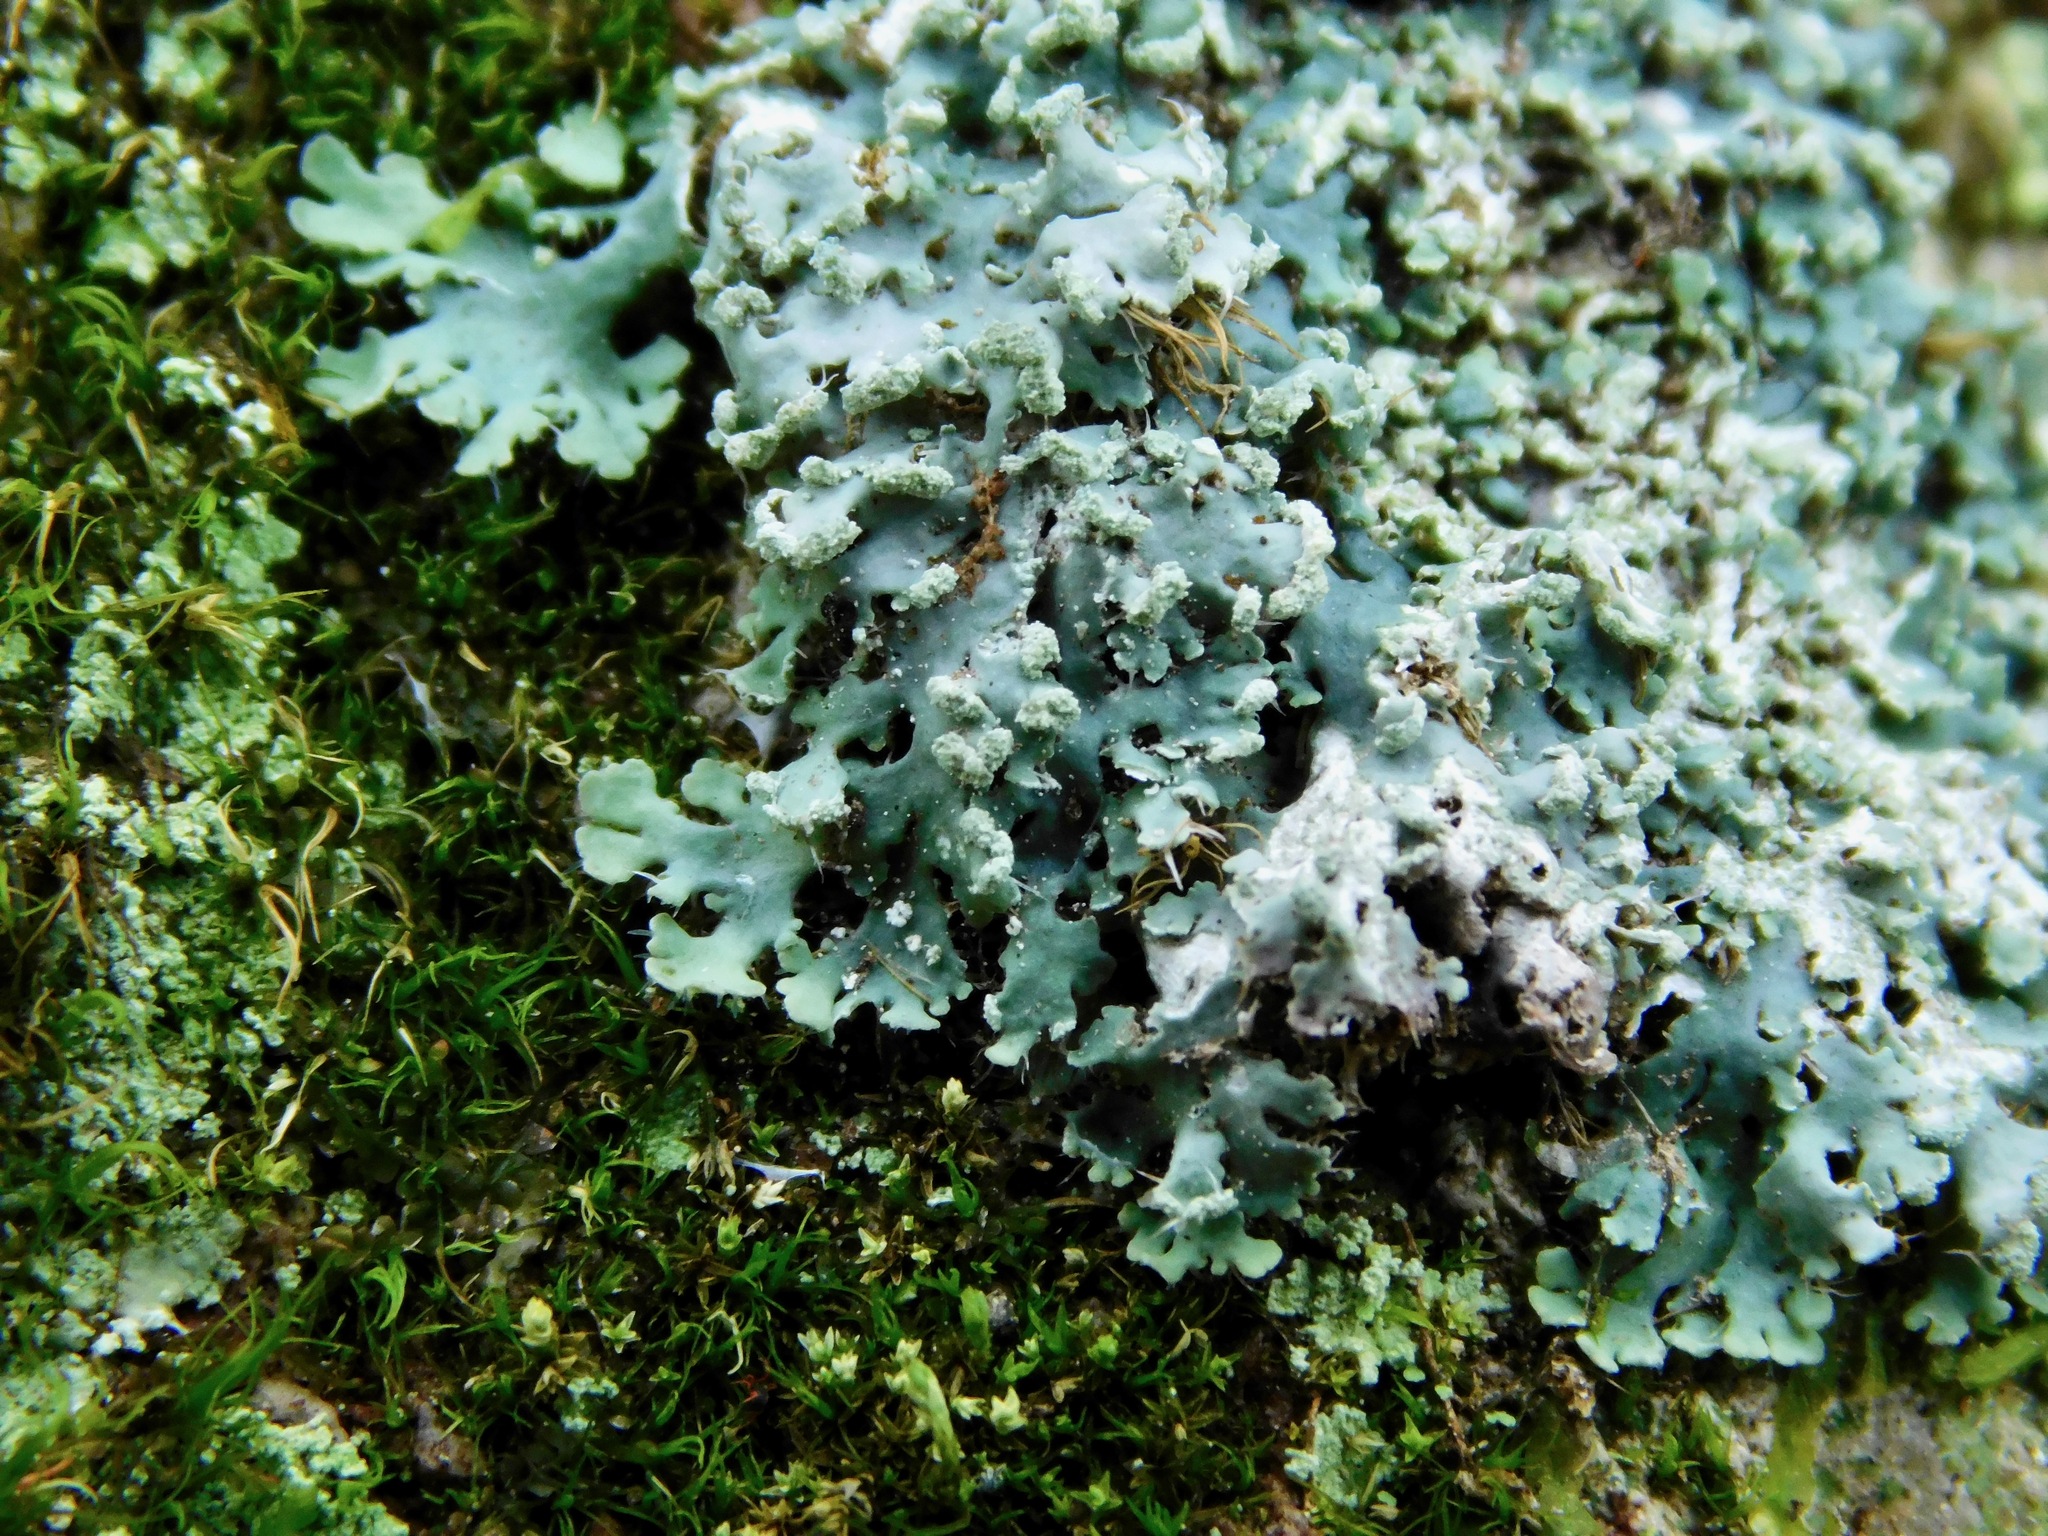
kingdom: Fungi
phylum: Ascomycota
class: Lecanoromycetes
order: Caliciales
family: Physciaceae
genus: Heterodermia
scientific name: Heterodermia galactophylla
